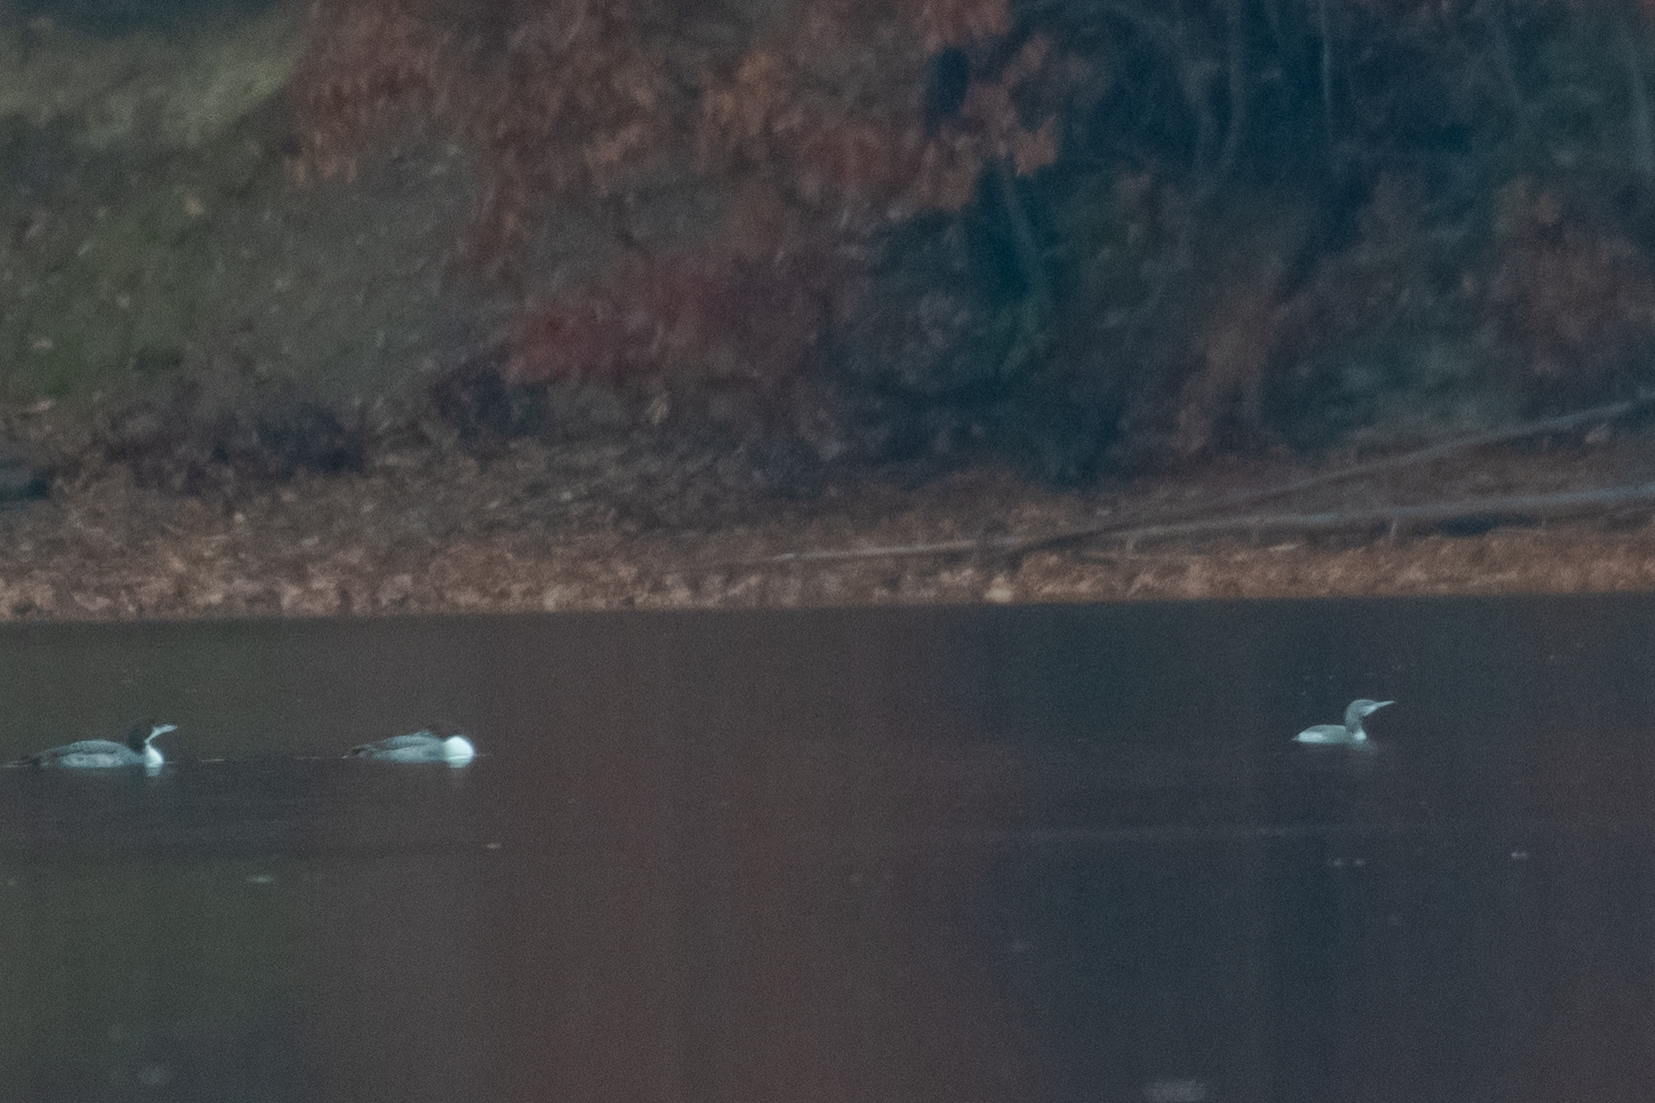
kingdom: Animalia
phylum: Chordata
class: Aves
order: Gaviiformes
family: Gaviidae
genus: Gavia
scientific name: Gavia stellata
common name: Red-throated loon
